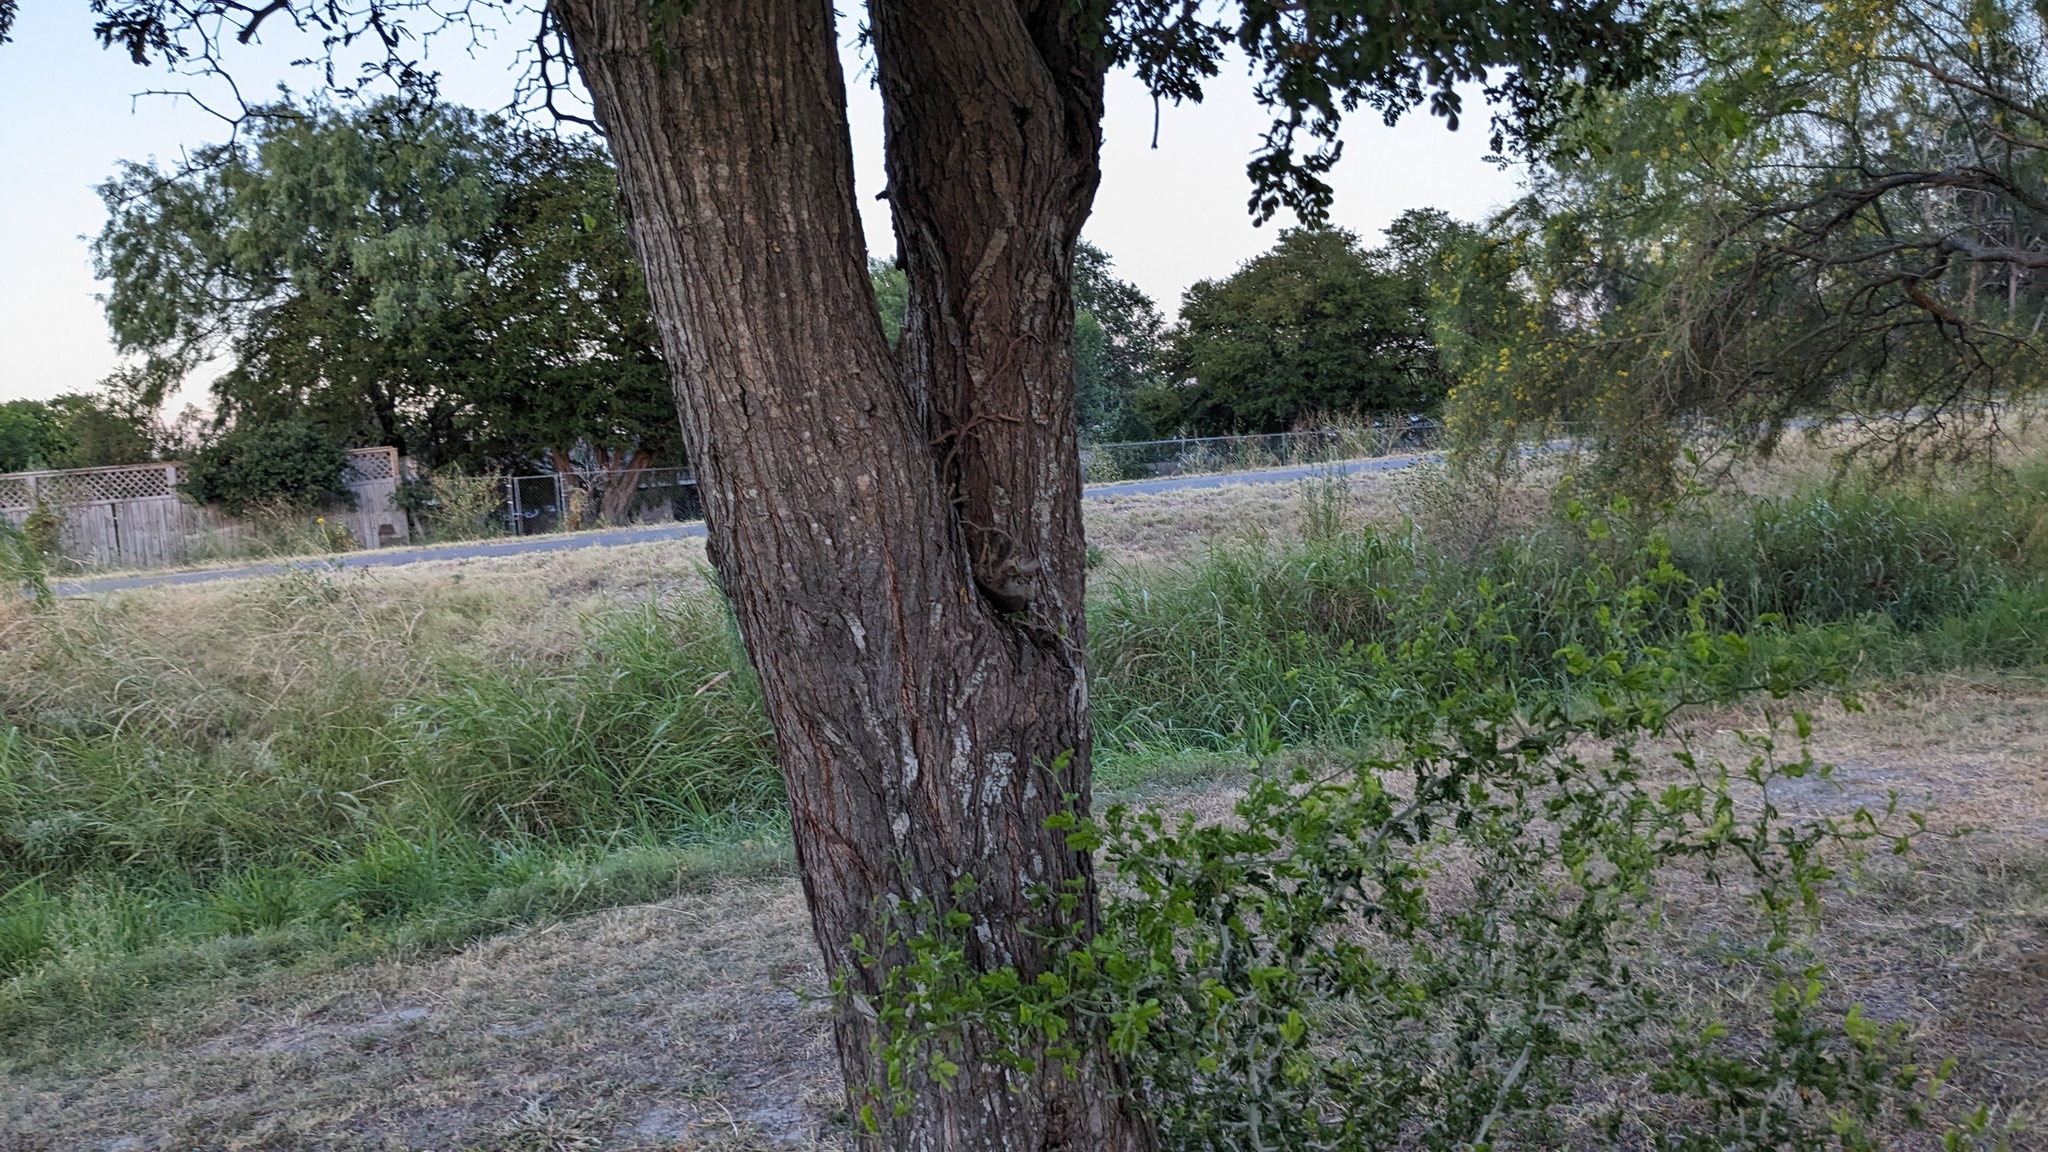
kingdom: Plantae
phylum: Tracheophyta
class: Magnoliopsida
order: Fabales
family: Fabaceae
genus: Ebenopsis
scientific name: Ebenopsis ebano
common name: Ebony blackbead
